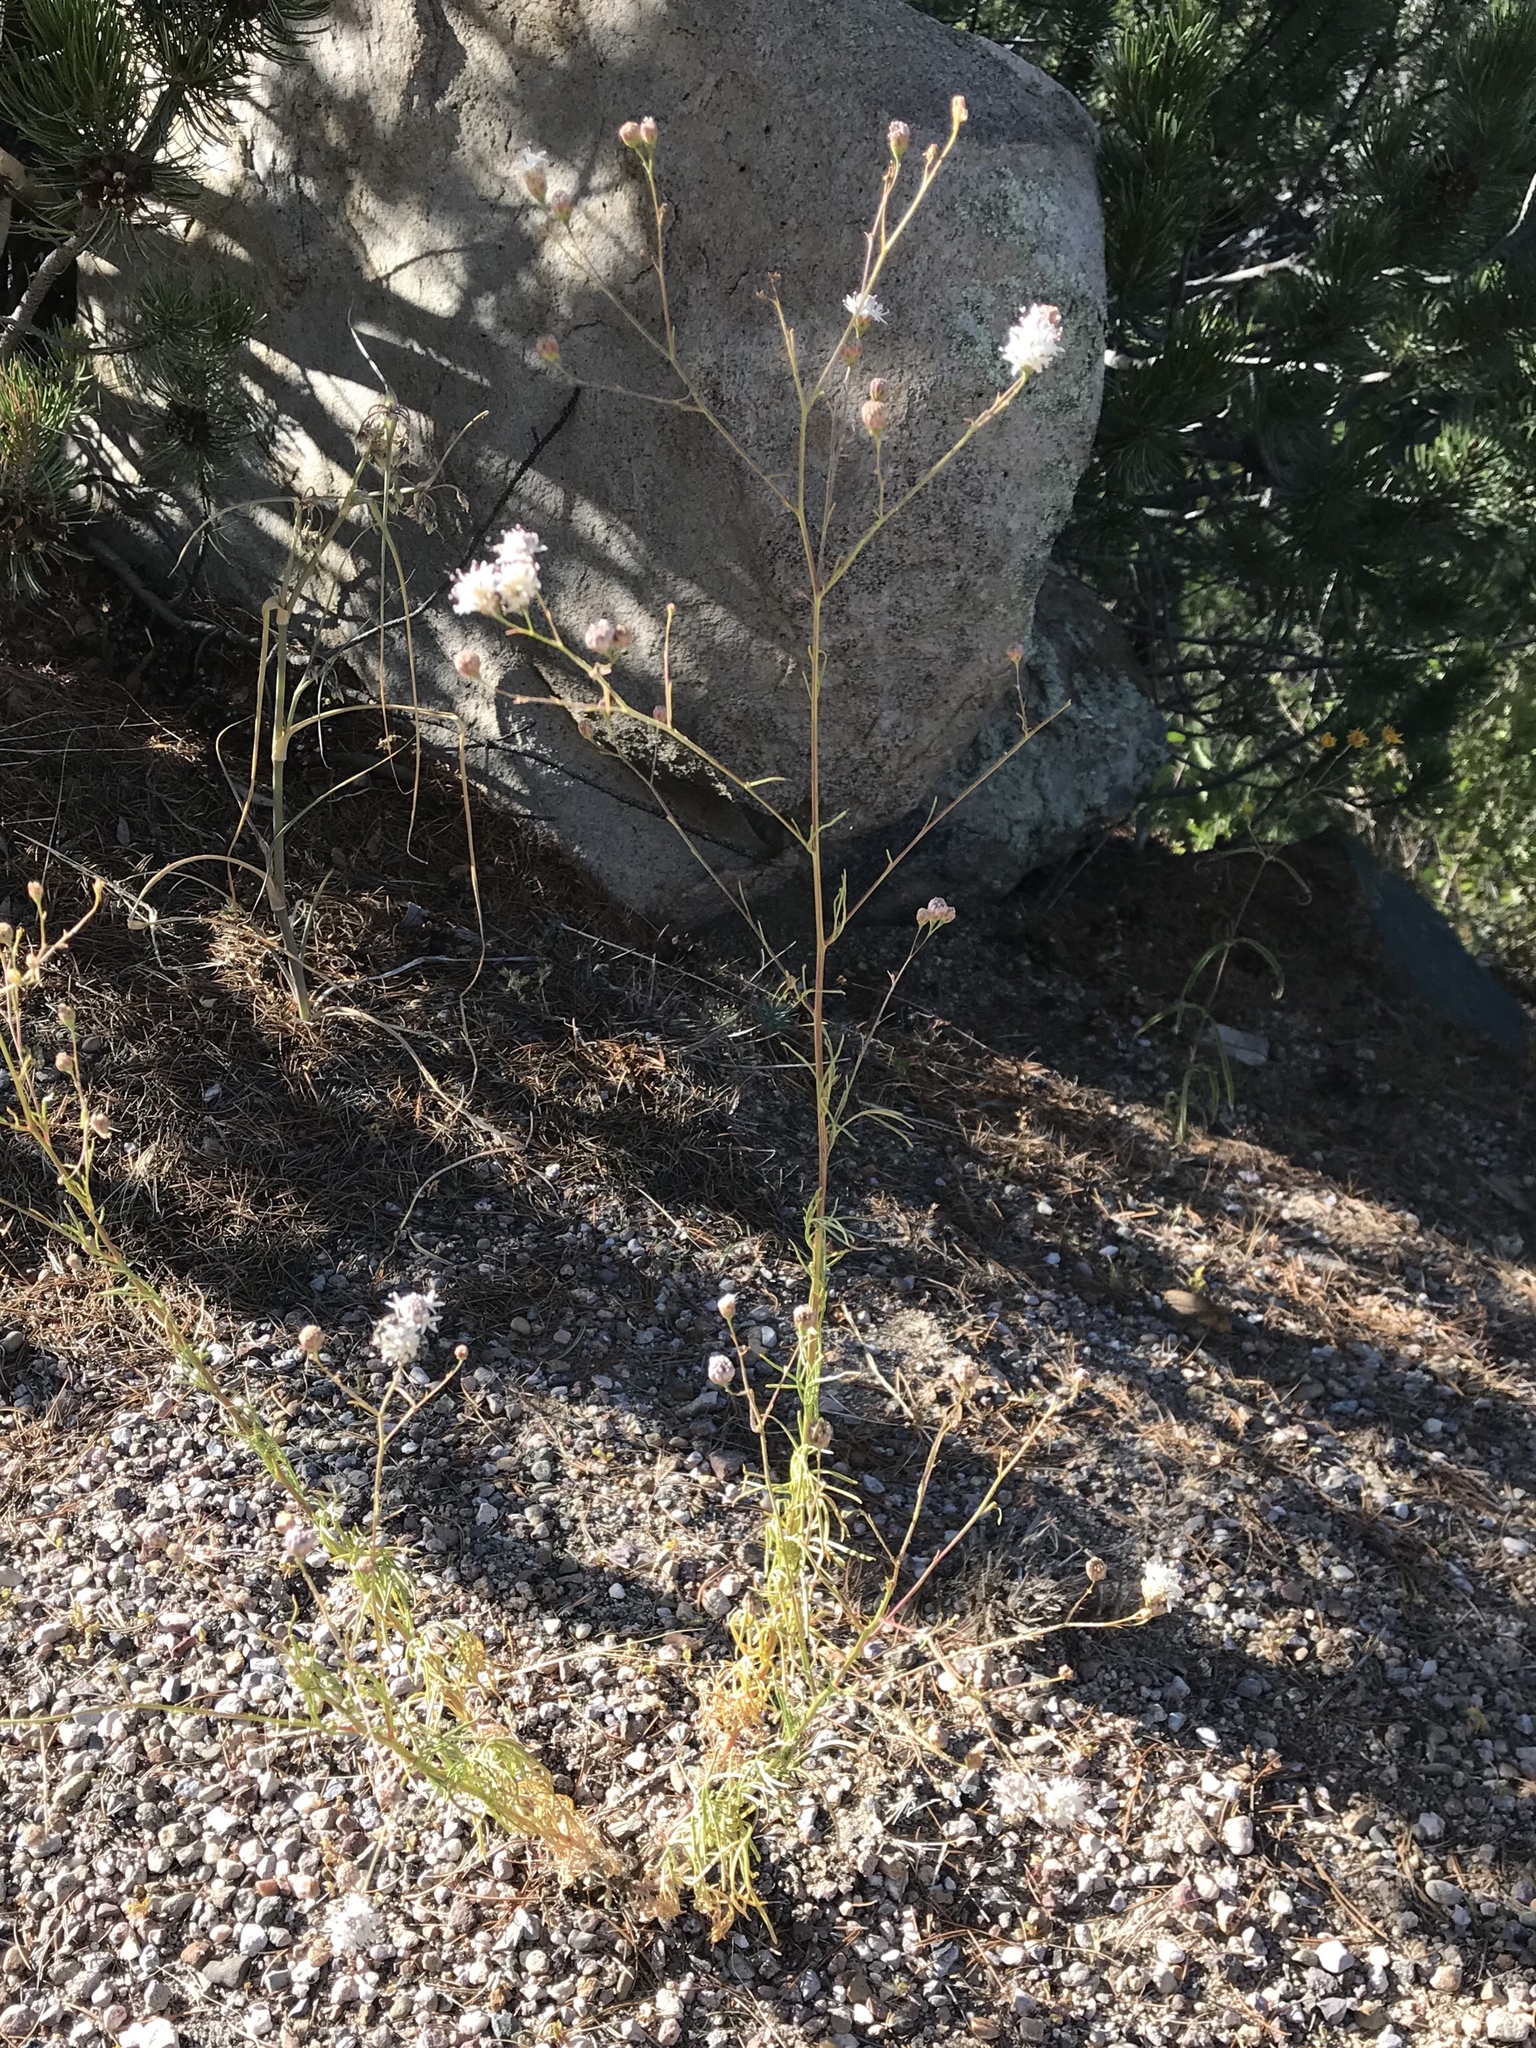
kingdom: Plantae
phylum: Tracheophyta
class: Magnoliopsida
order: Asterales
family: Asteraceae
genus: Hymenothrix
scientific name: Hymenothrix wrightii
